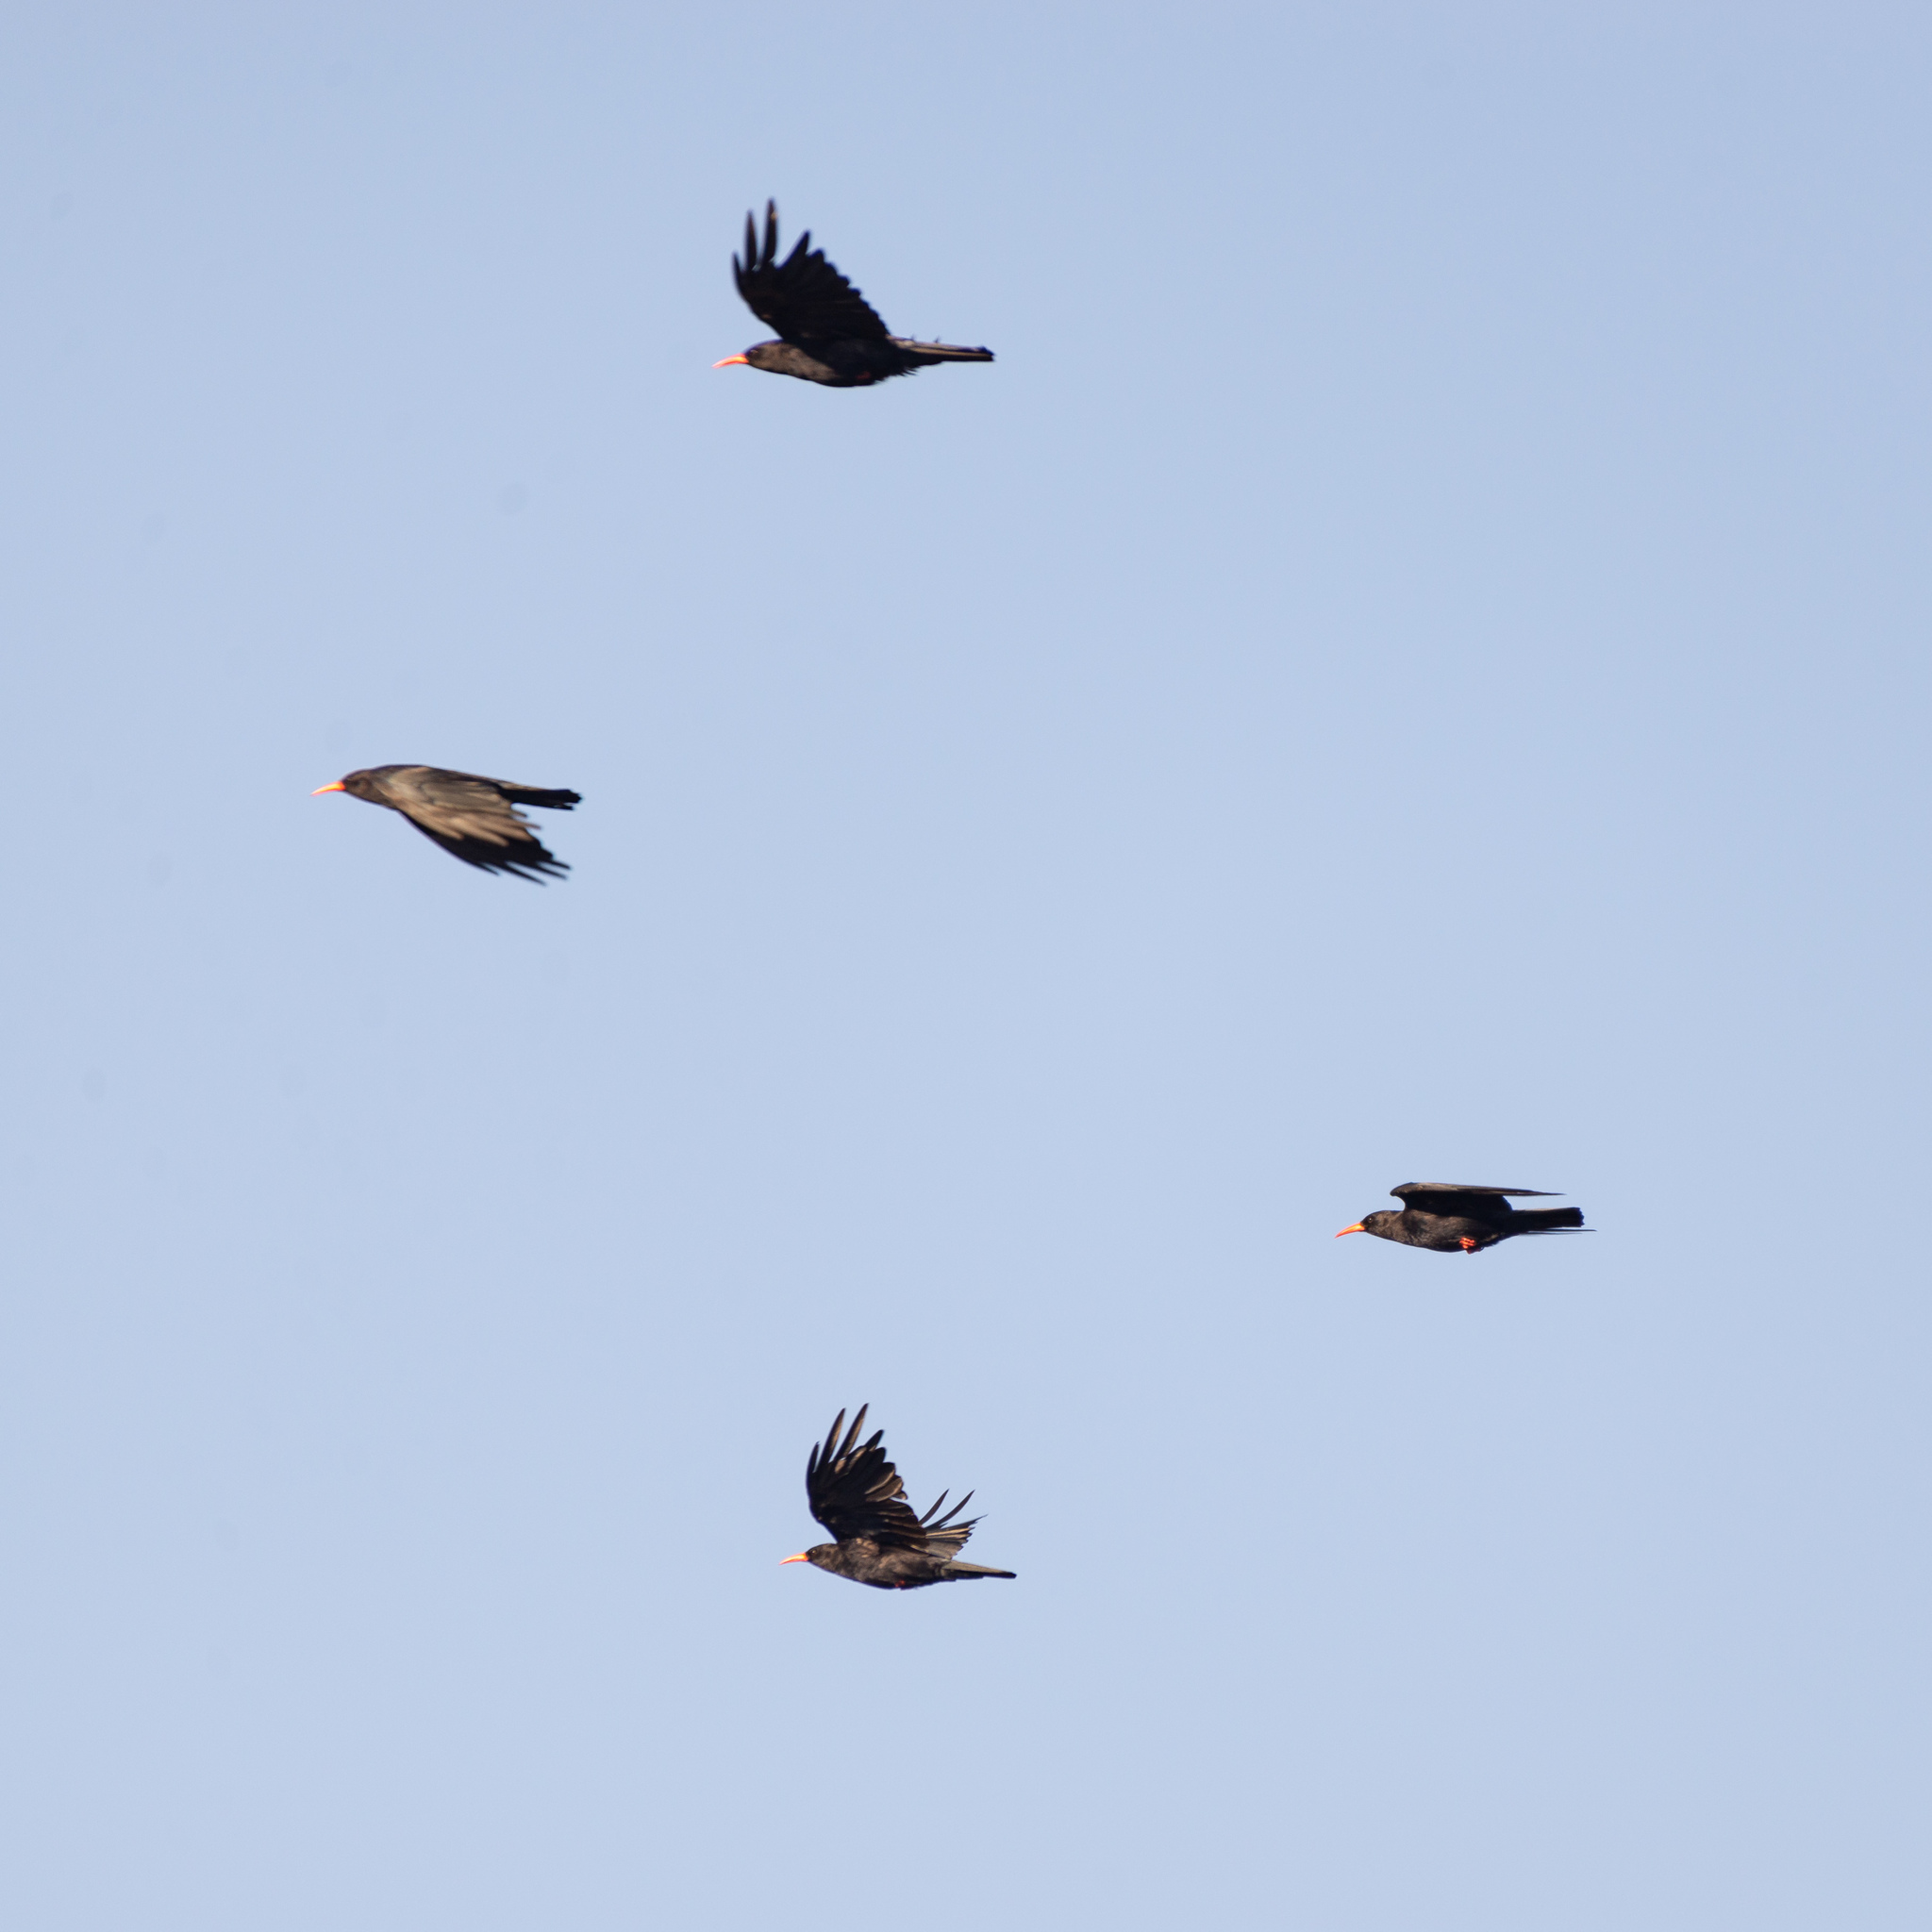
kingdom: Animalia
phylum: Chordata
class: Aves
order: Passeriformes
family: Corvidae
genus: Pyrrhocorax
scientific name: Pyrrhocorax pyrrhocorax
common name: Red-billed chough
